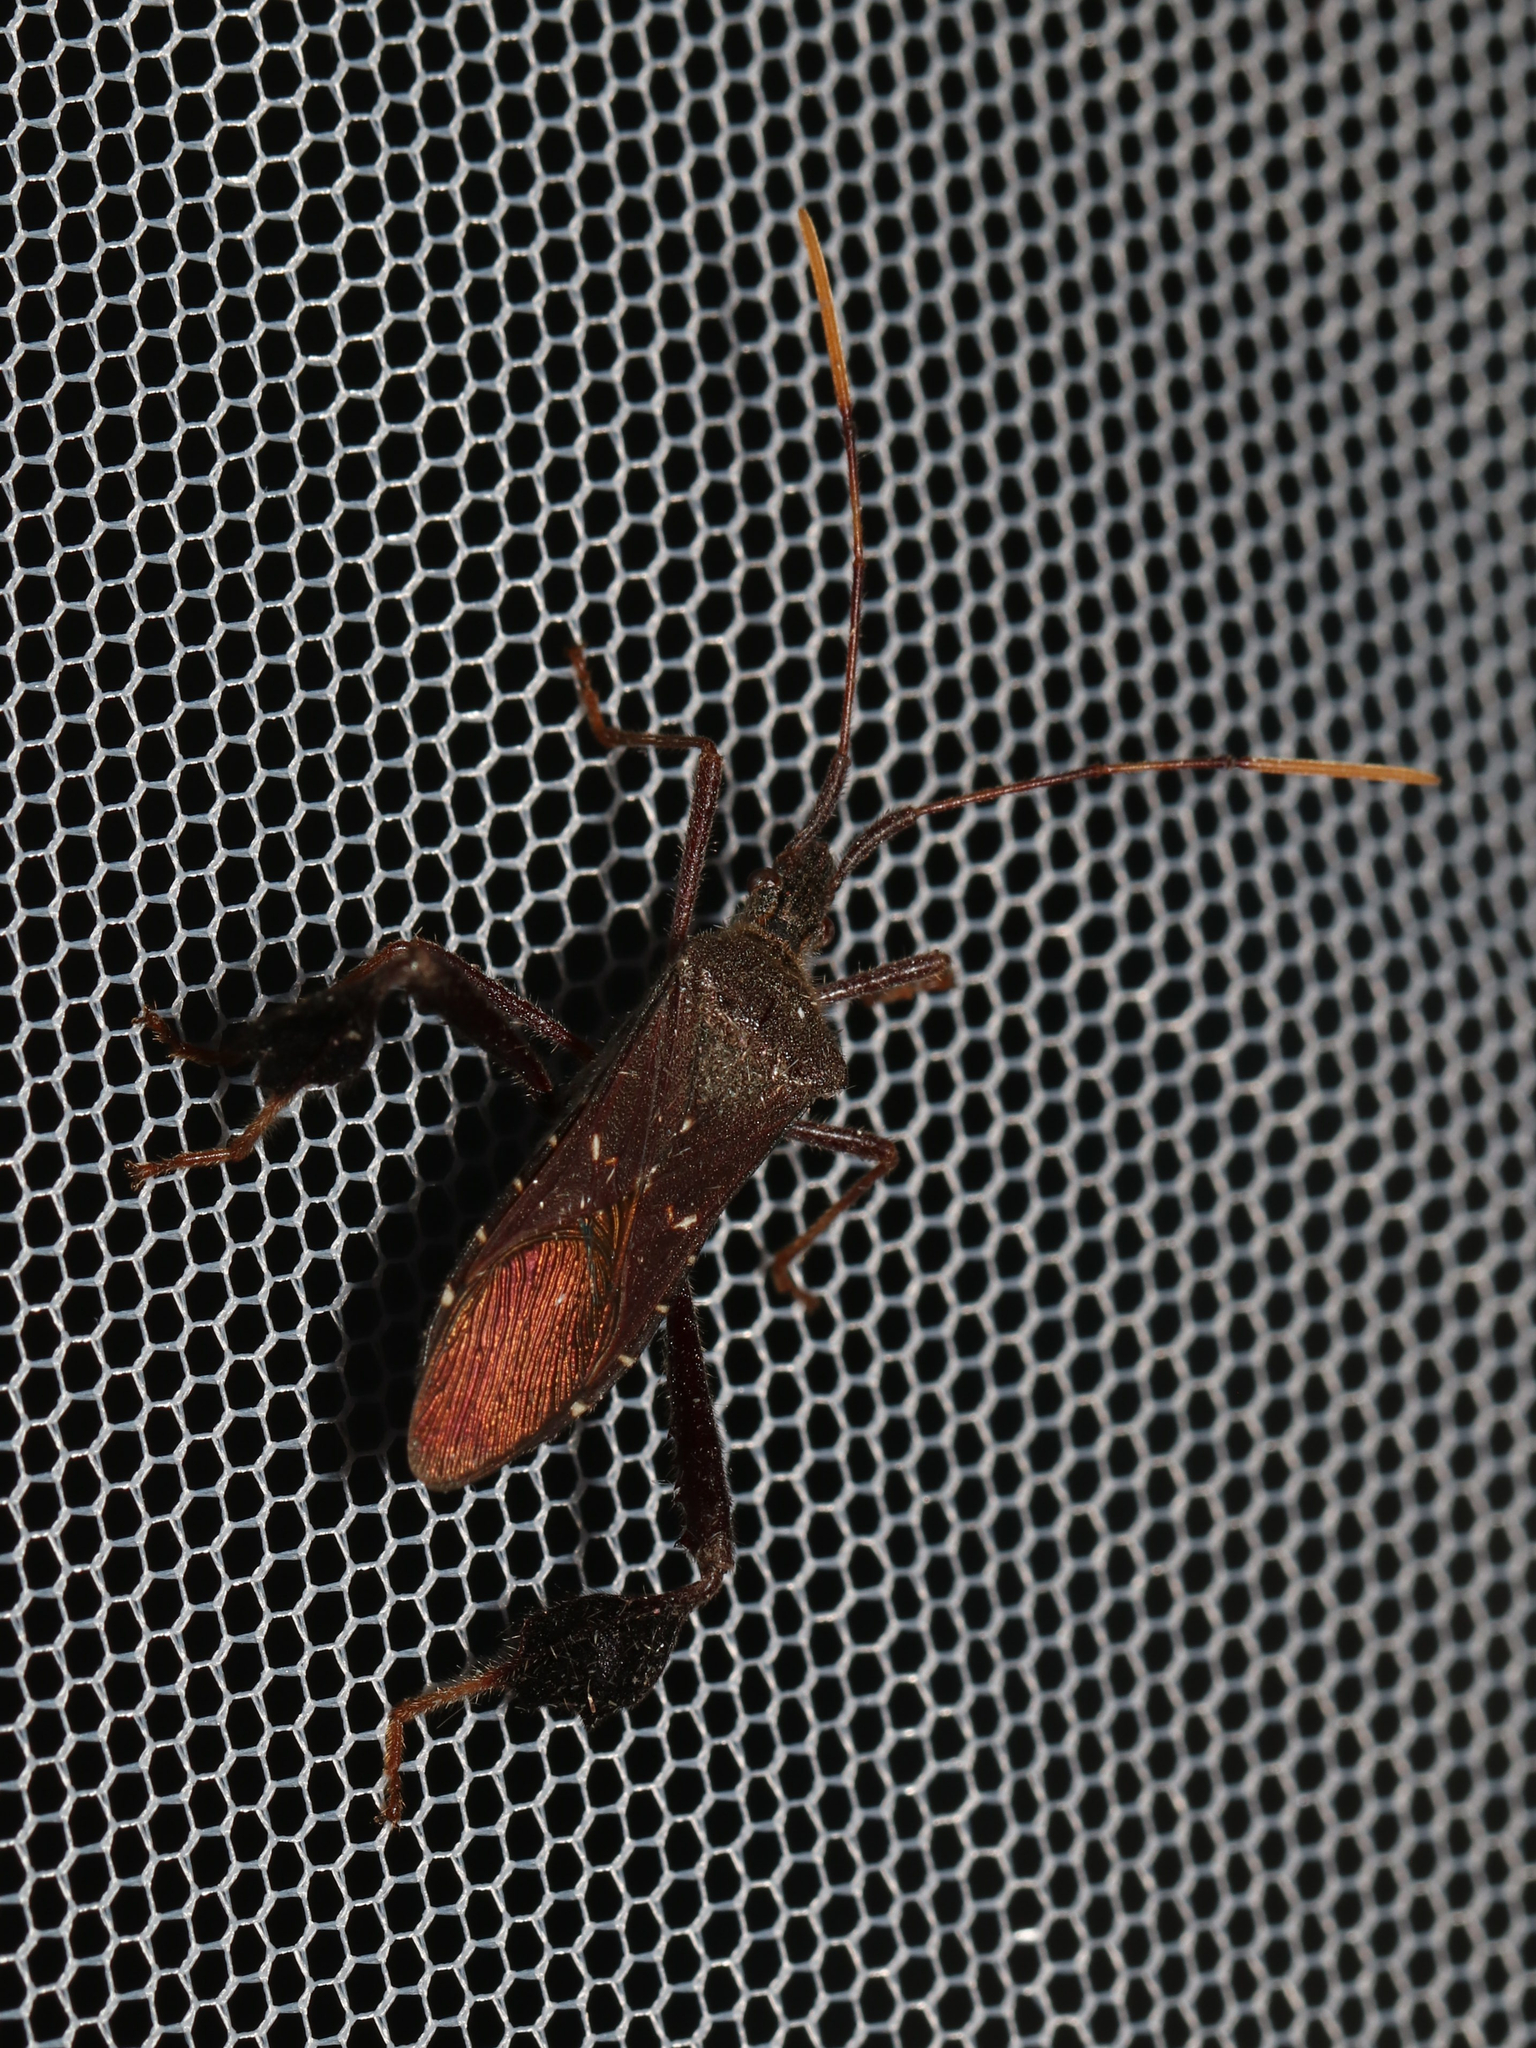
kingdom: Animalia
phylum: Arthropoda
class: Insecta
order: Hemiptera
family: Coreidae
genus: Leptoglossus
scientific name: Leptoglossus oppositus
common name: Northern leaf-footed bug
